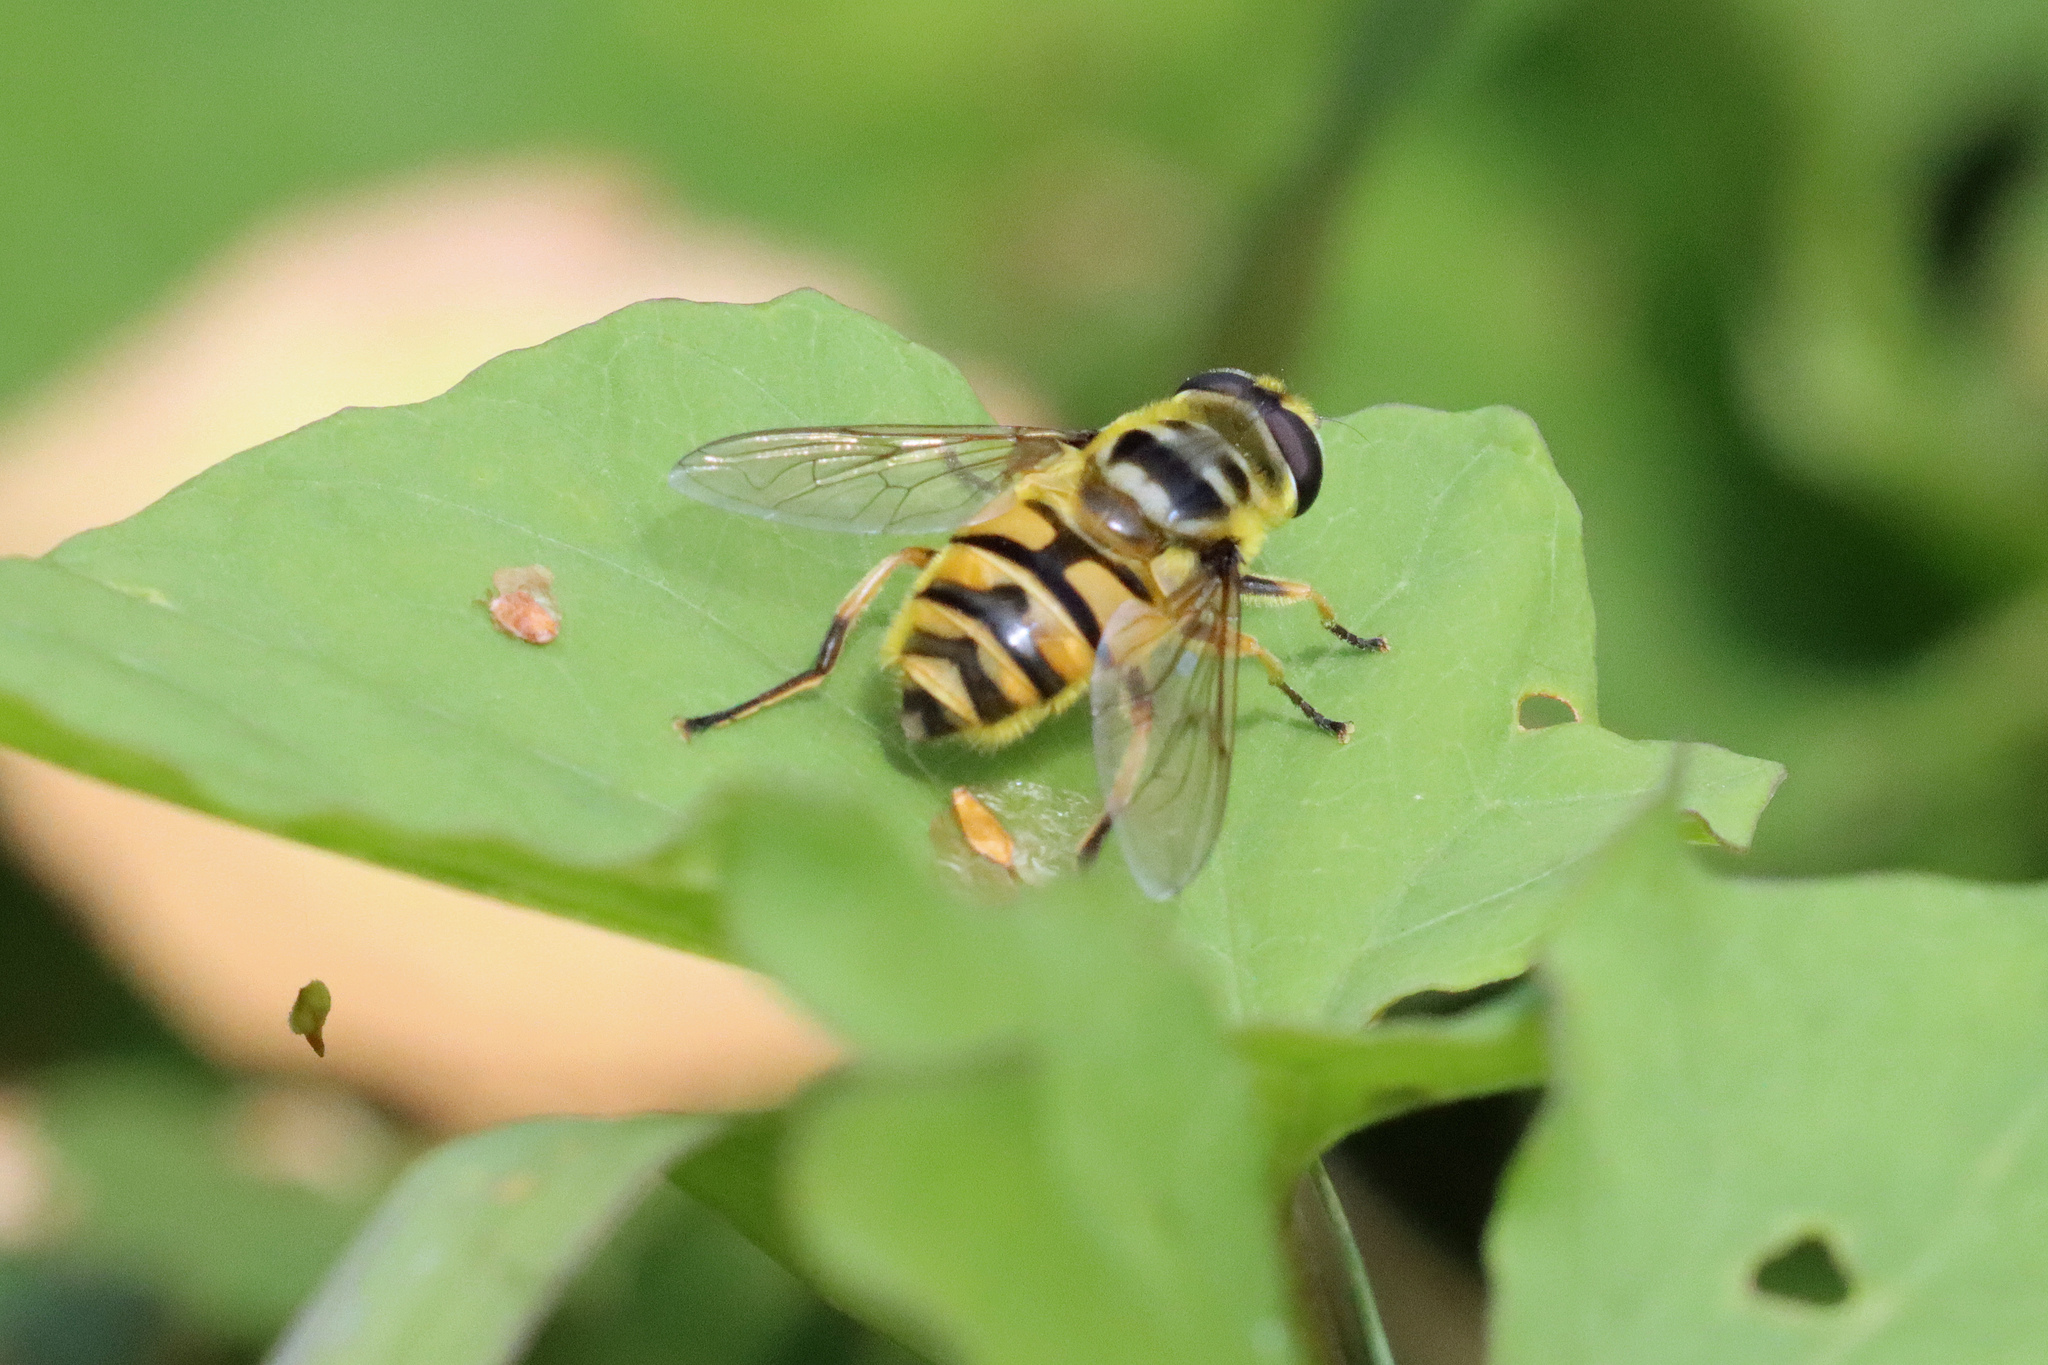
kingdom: Animalia
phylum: Arthropoda
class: Insecta
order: Diptera
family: Syrphidae
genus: Myathropa
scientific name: Myathropa florea
